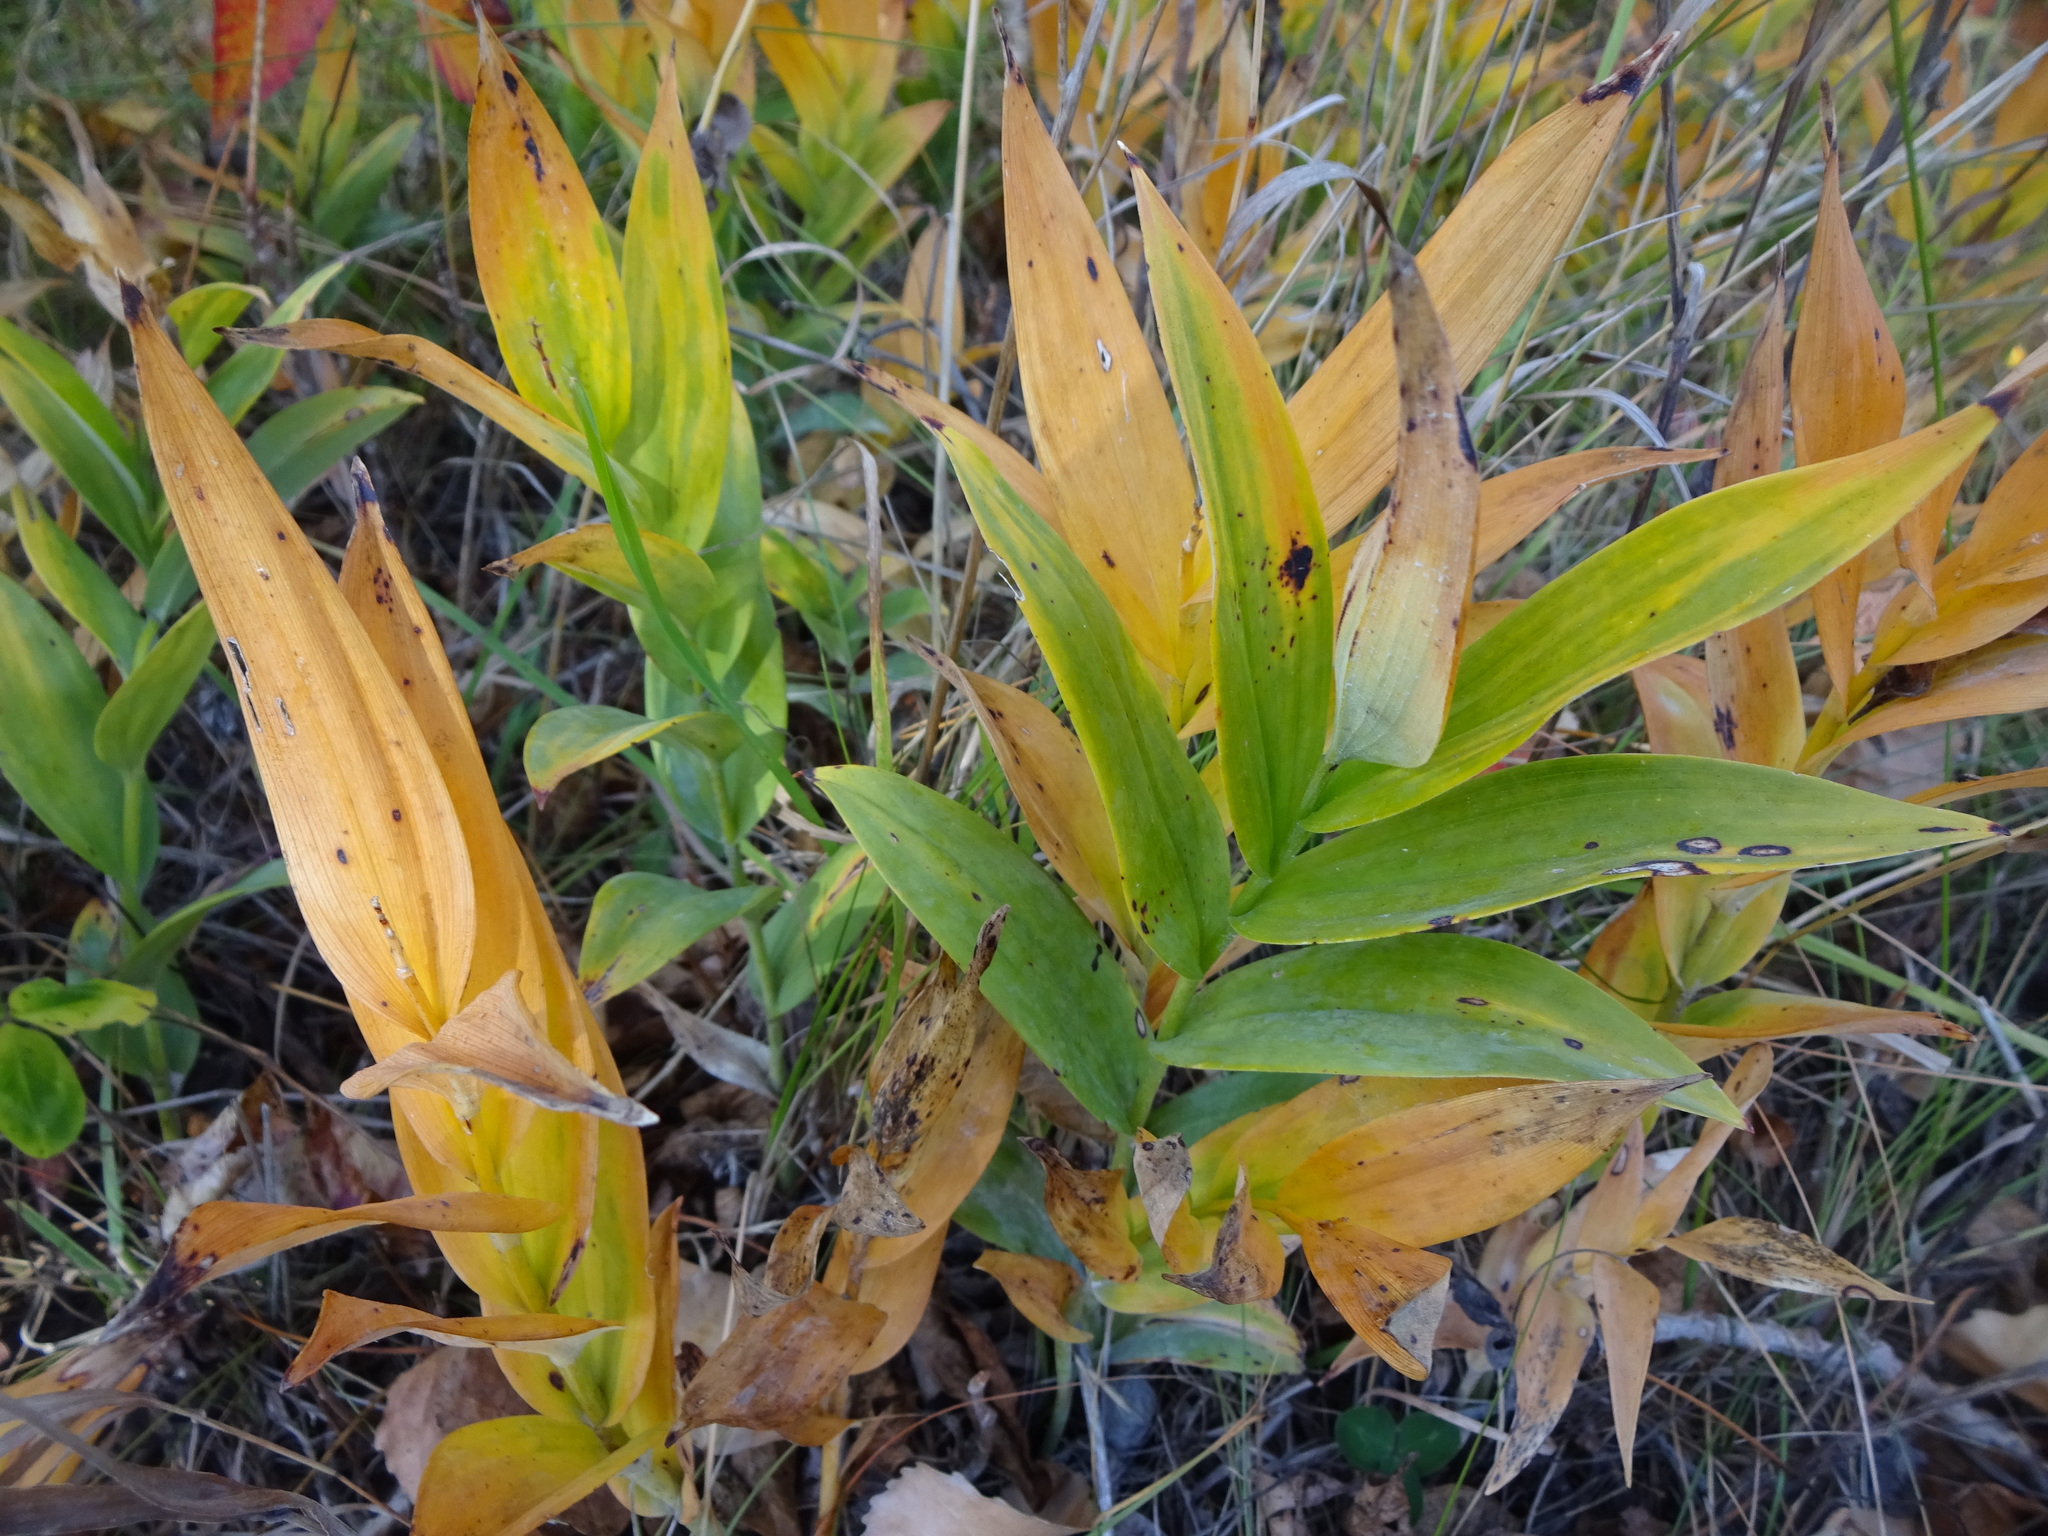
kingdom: Plantae
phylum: Tracheophyta
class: Liliopsida
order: Asparagales
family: Asparagaceae
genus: Maianthemum
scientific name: Maianthemum stellatum
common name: Little false solomon's seal
